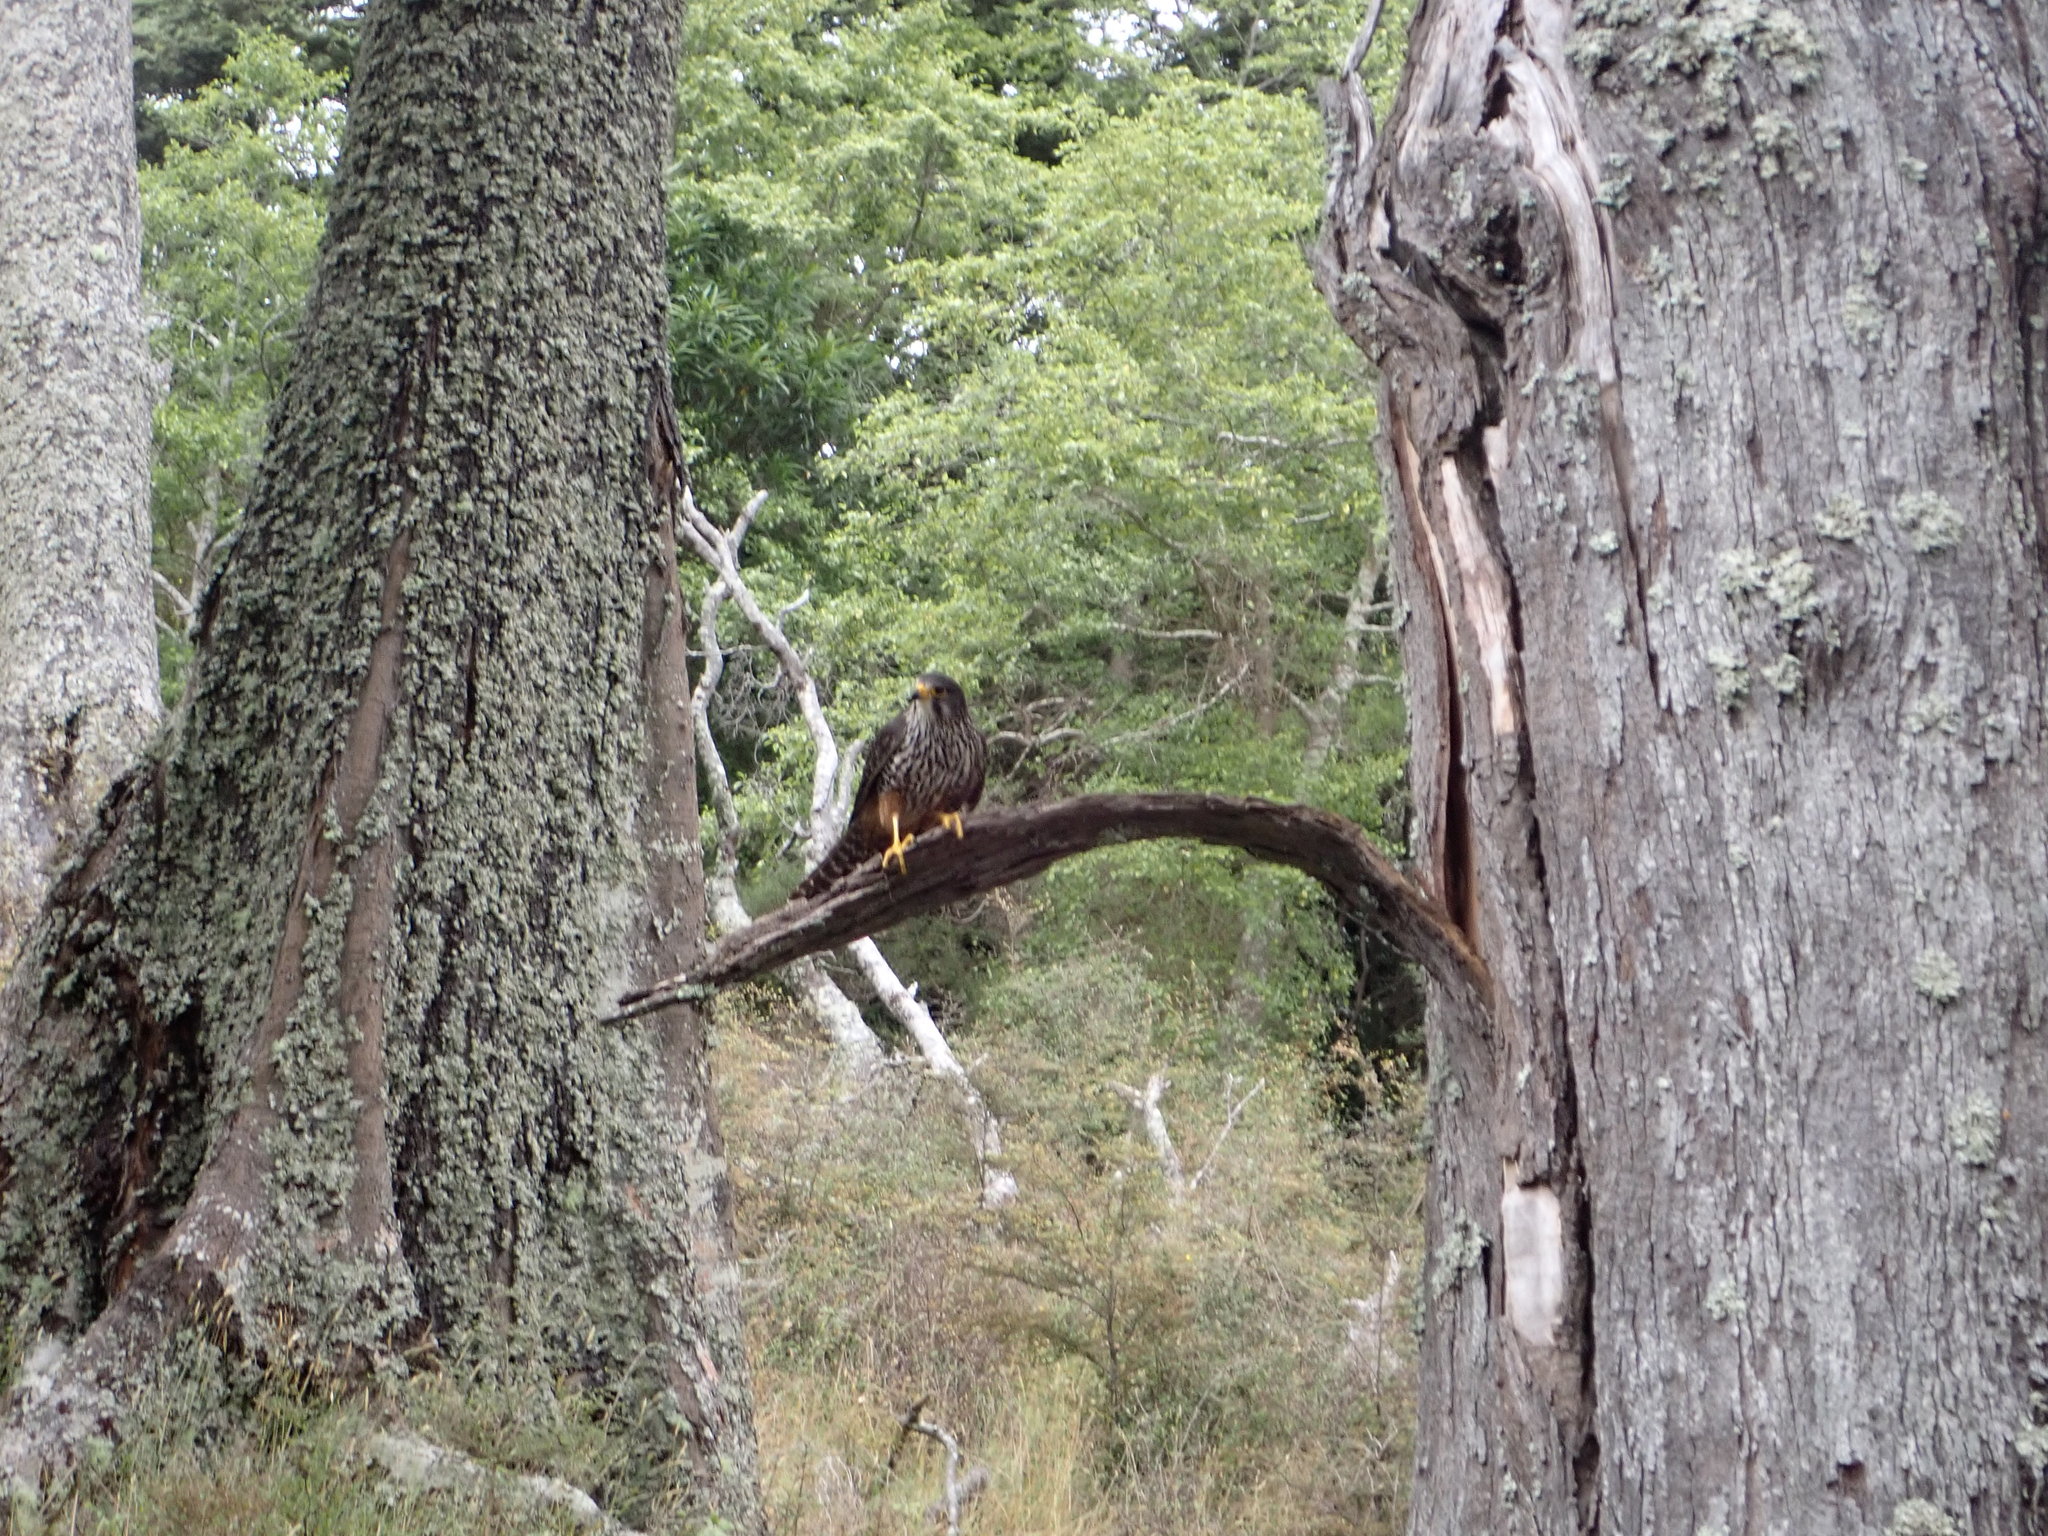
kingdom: Animalia
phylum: Chordata
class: Aves
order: Falconiformes
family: Falconidae
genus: Falco
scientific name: Falco novaeseelandiae
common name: New zealand falcon
